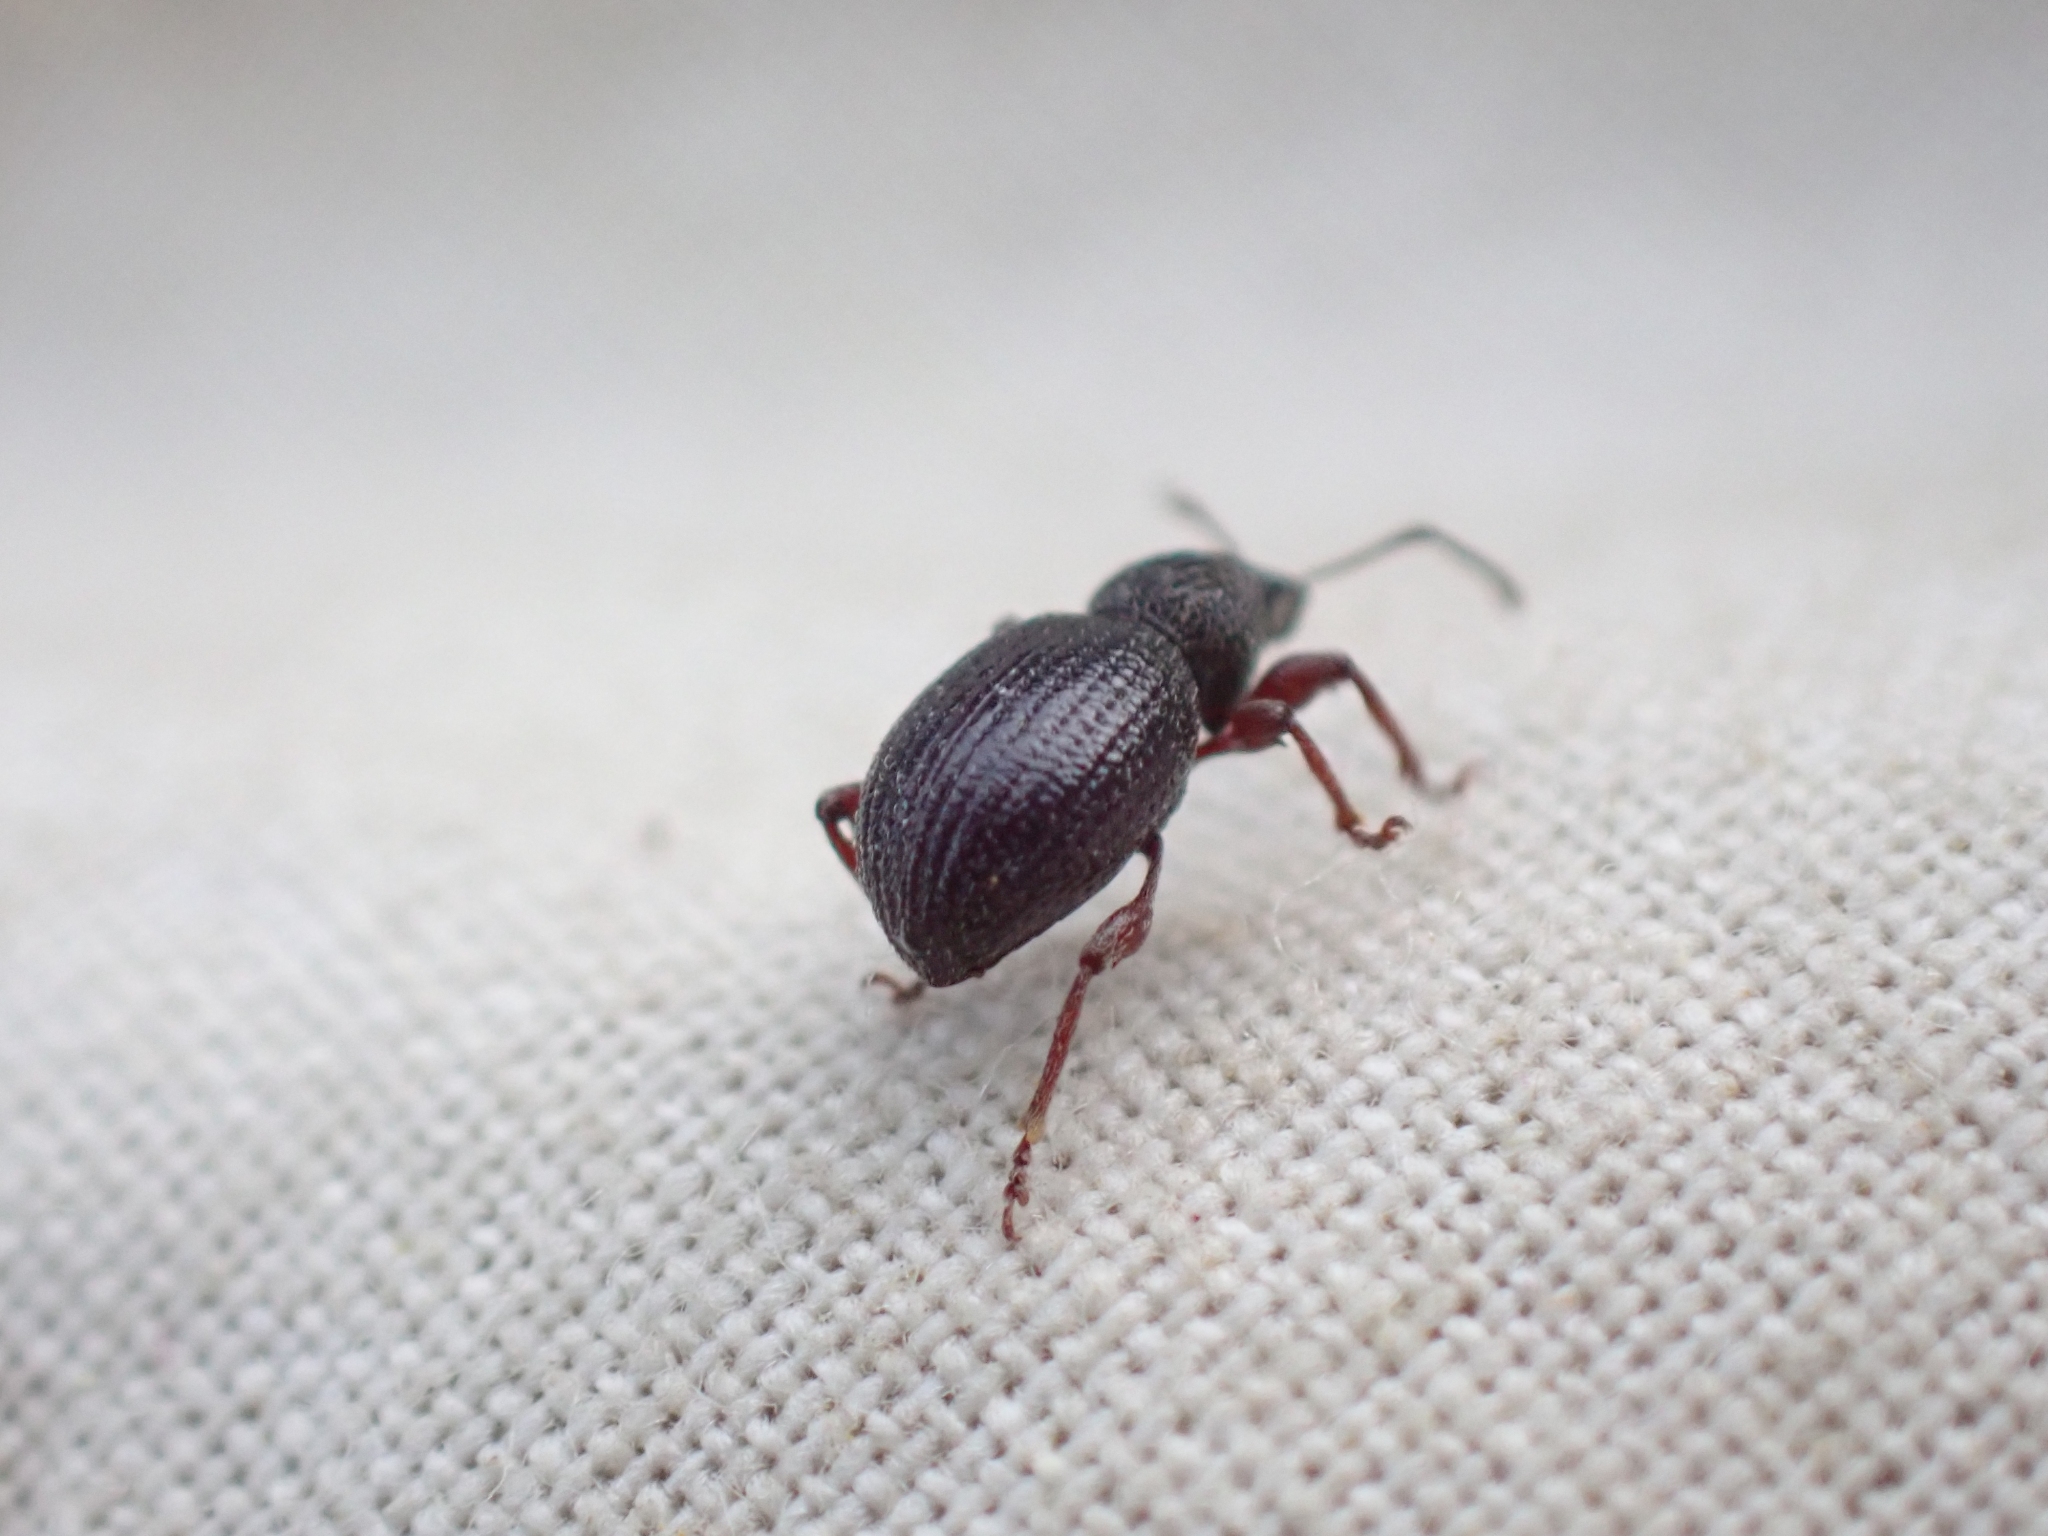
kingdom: Animalia
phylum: Arthropoda
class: Insecta
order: Coleoptera
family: Curculionidae
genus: Otiorhynchus
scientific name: Otiorhynchus ovatus
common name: Strawberry root weevil
